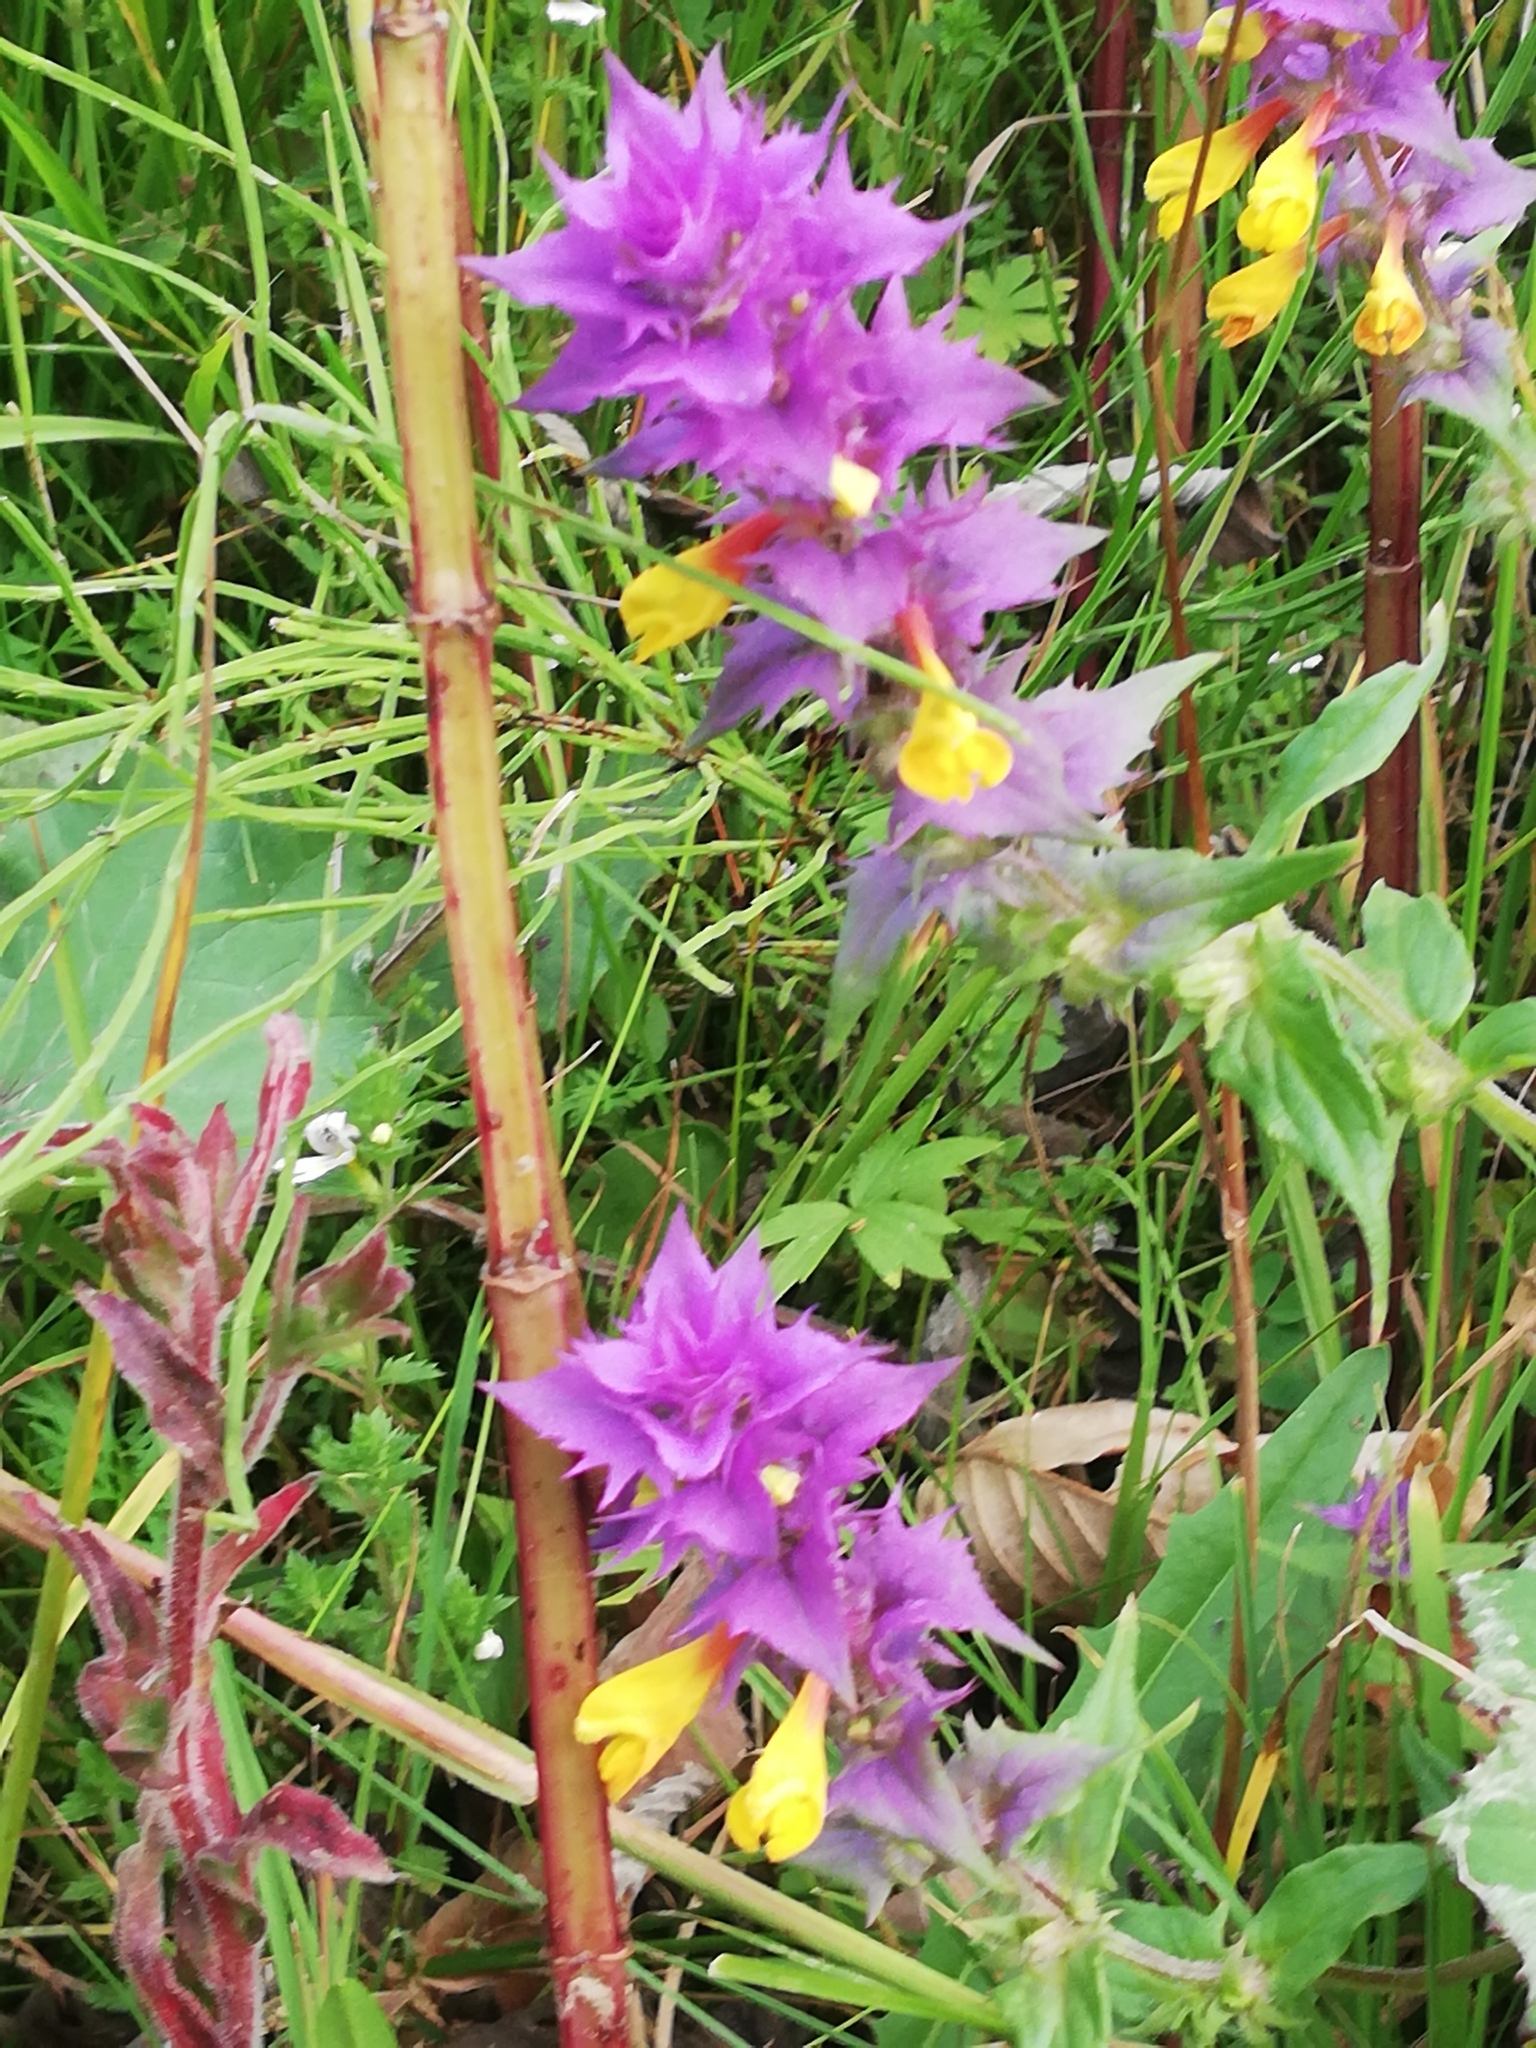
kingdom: Plantae
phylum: Tracheophyta
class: Magnoliopsida
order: Lamiales
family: Orobanchaceae
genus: Melampyrum
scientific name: Melampyrum nemorosum
